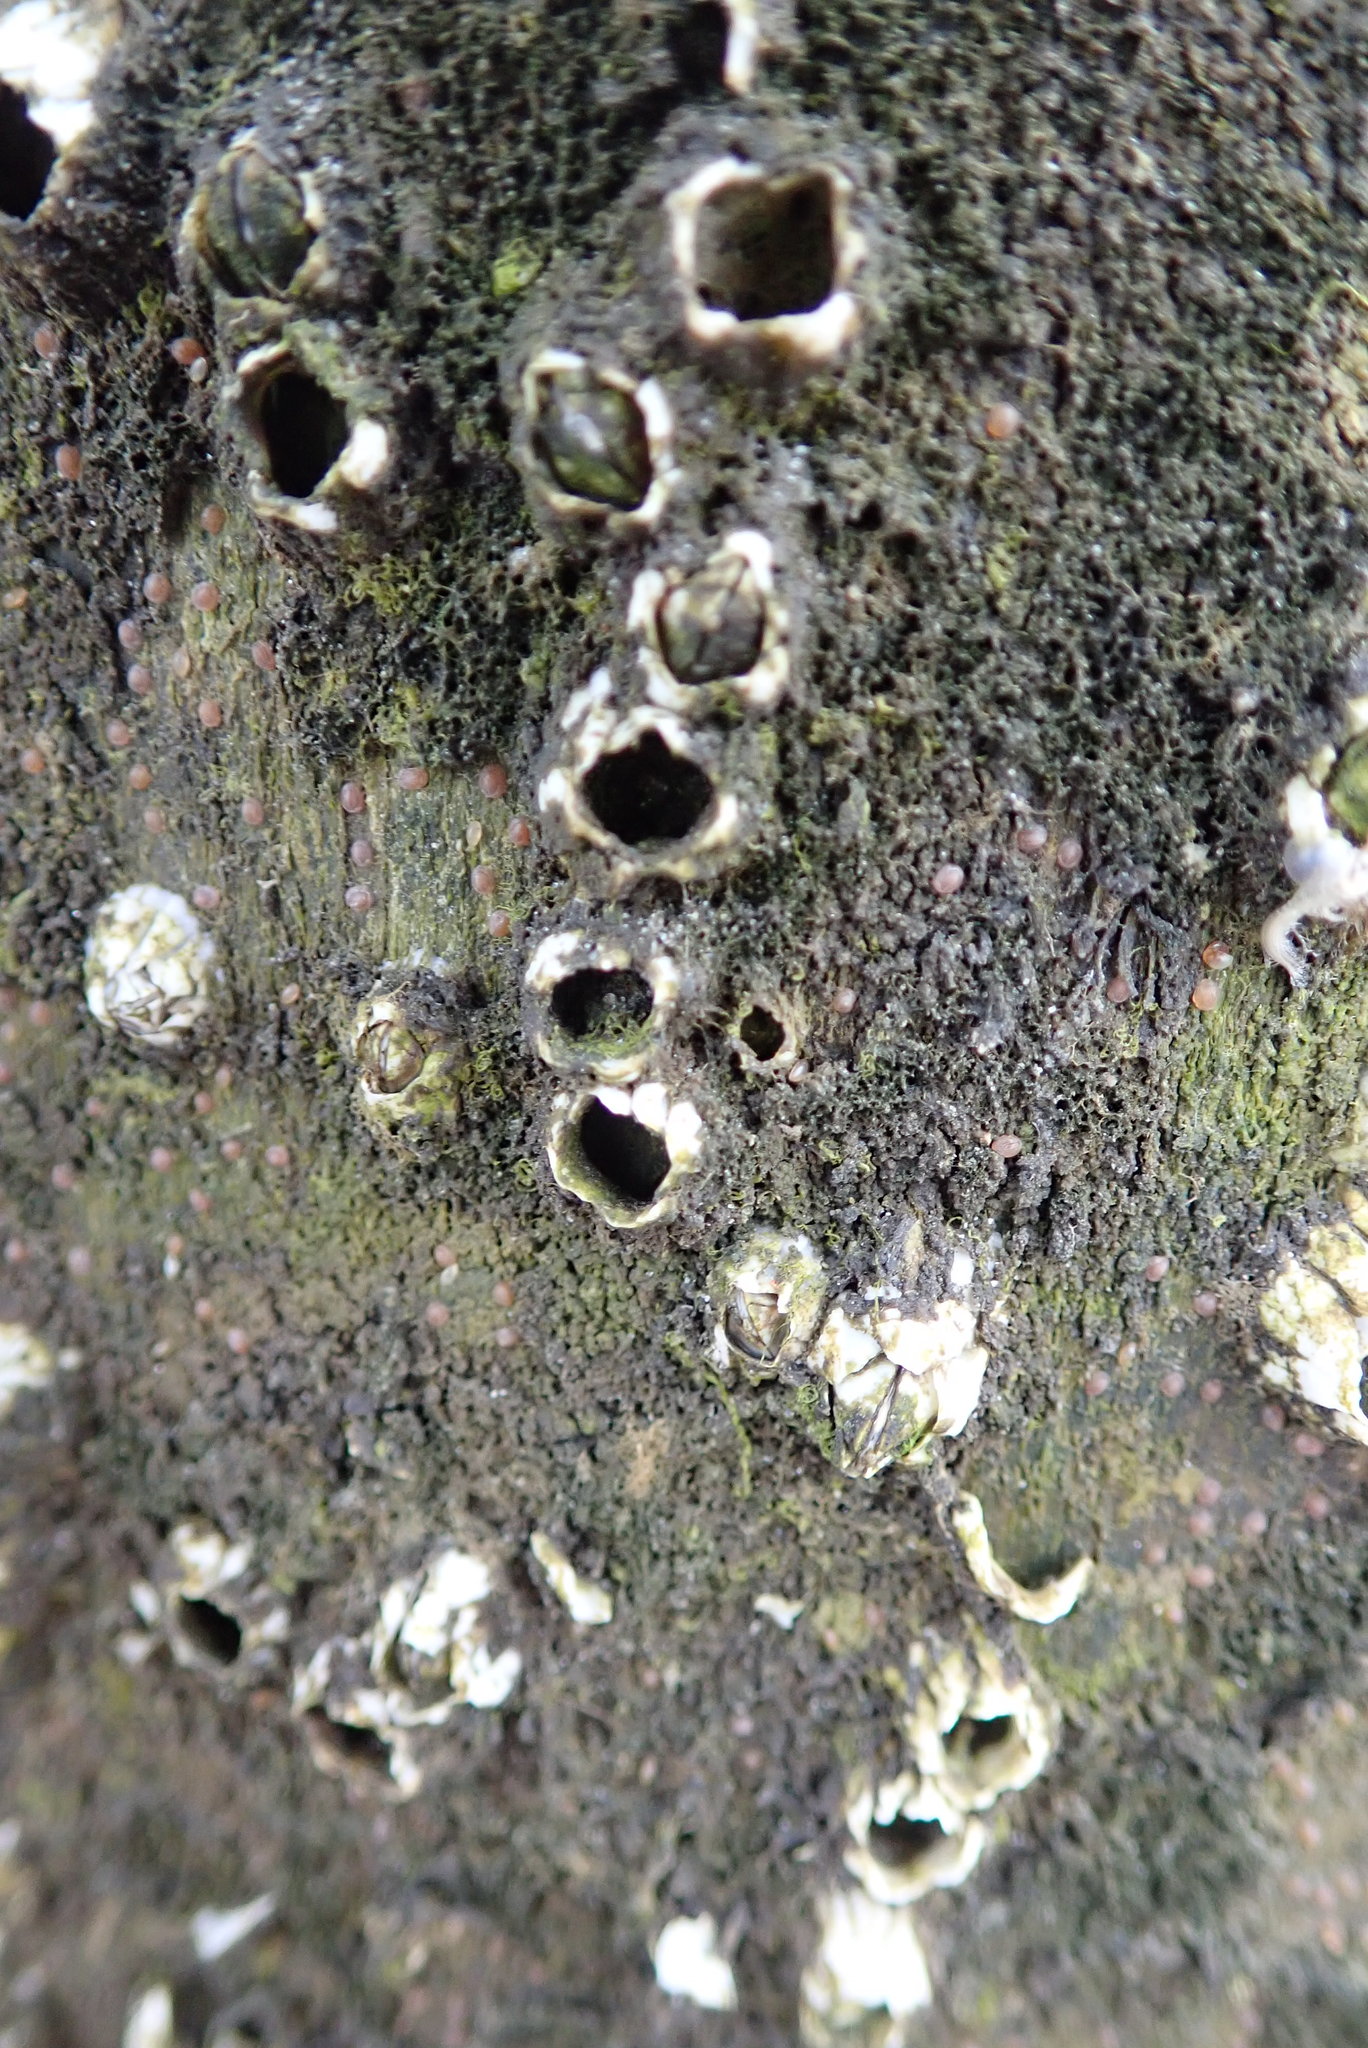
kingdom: Animalia
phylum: Arthropoda
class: Maxillopoda
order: Sessilia
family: Archaeobalanidae
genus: Semibalanus
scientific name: Semibalanus balanoides
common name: Acorn barnacle
